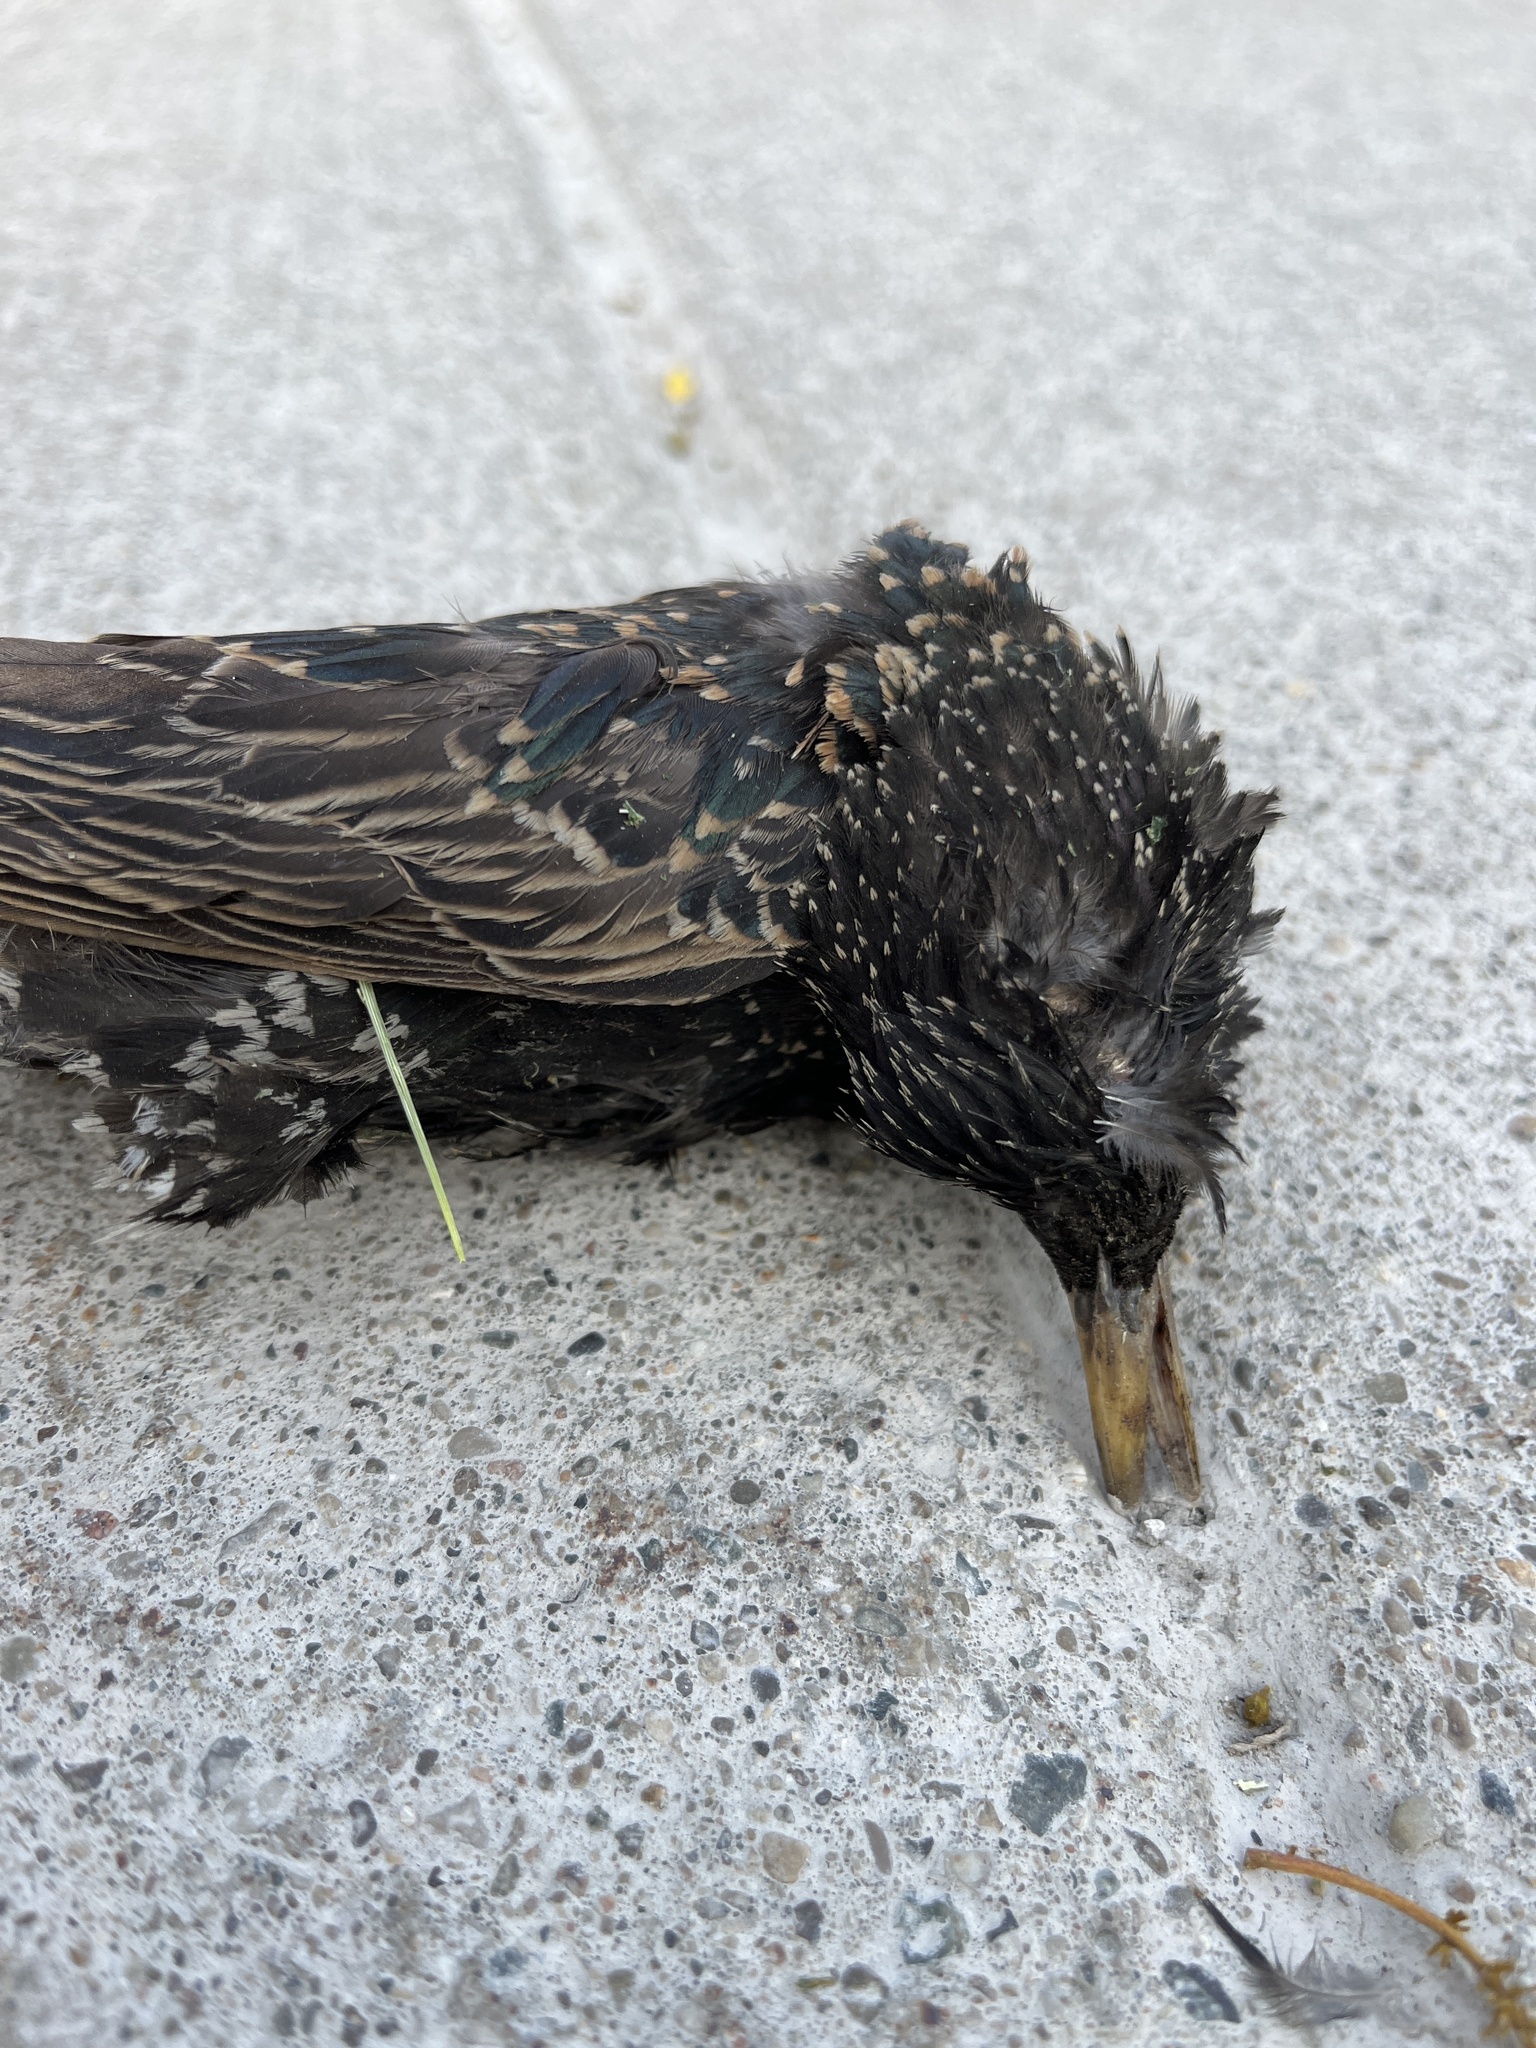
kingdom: Animalia
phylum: Chordata
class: Aves
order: Passeriformes
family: Sturnidae
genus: Sturnus
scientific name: Sturnus vulgaris
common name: Common starling
